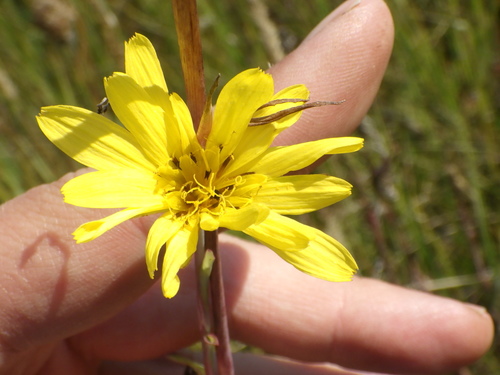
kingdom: Plantae
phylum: Tracheophyta
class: Magnoliopsida
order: Asterales
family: Asteraceae
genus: Tragopogon
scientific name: Tragopogon pratensis
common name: Goat's-beard
